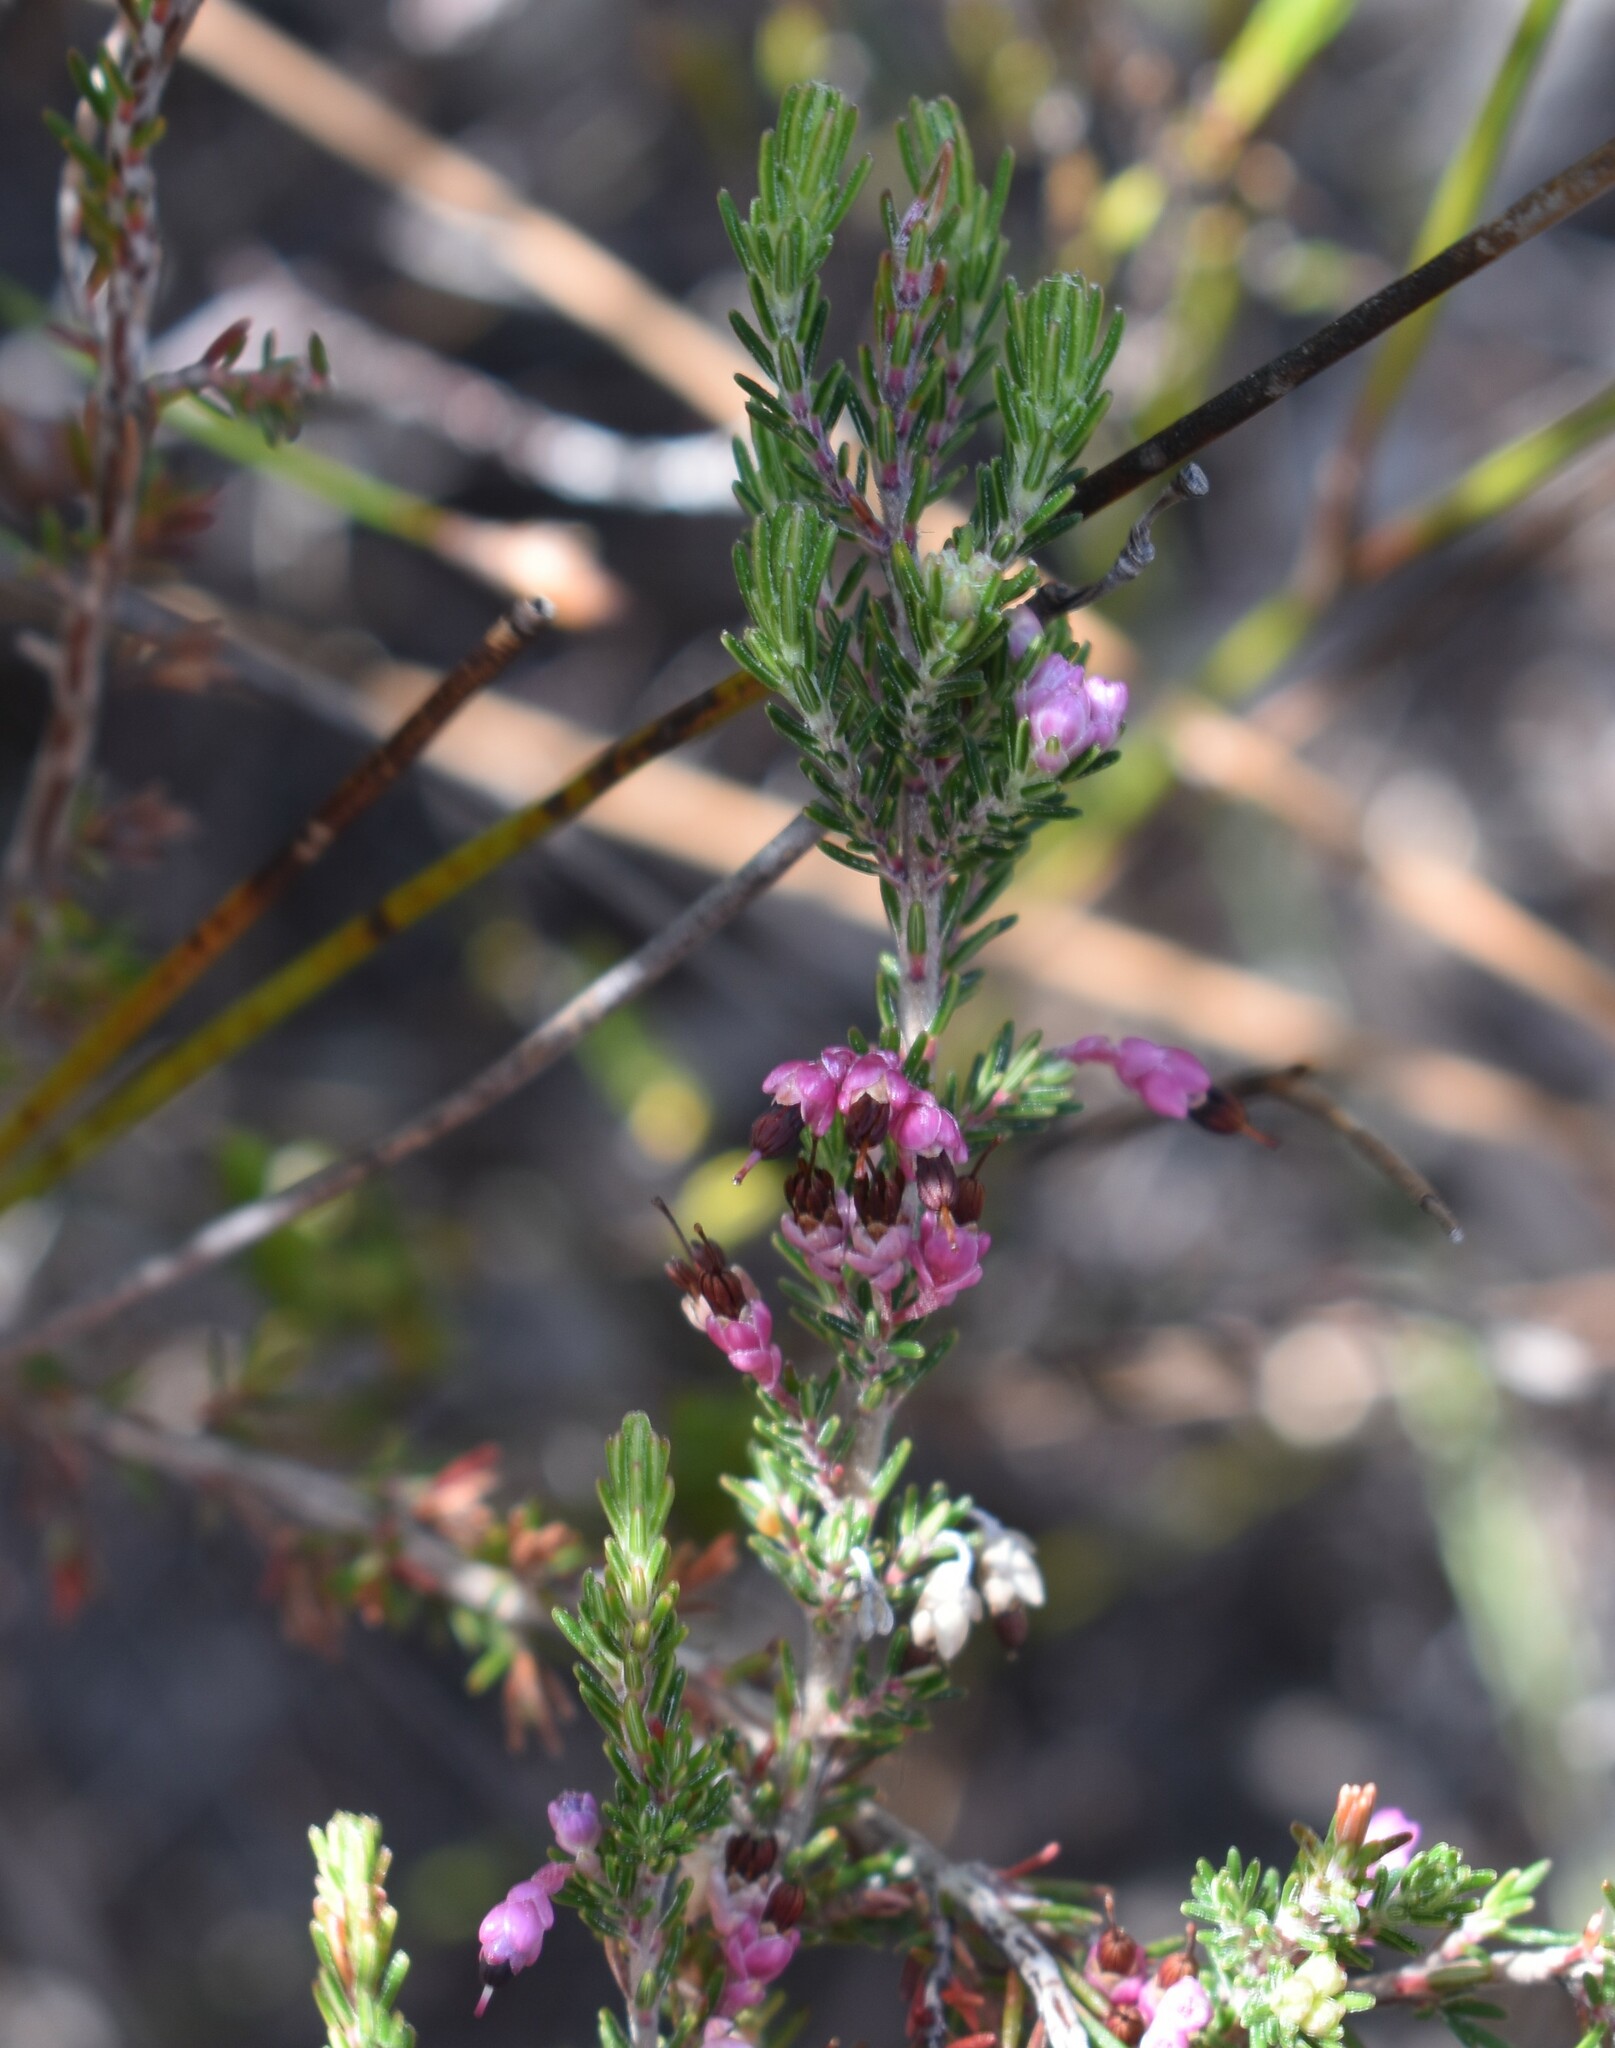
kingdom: Plantae
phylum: Tracheophyta
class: Magnoliopsida
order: Ericales
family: Ericaceae
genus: Erica
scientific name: Erica placentiflora
